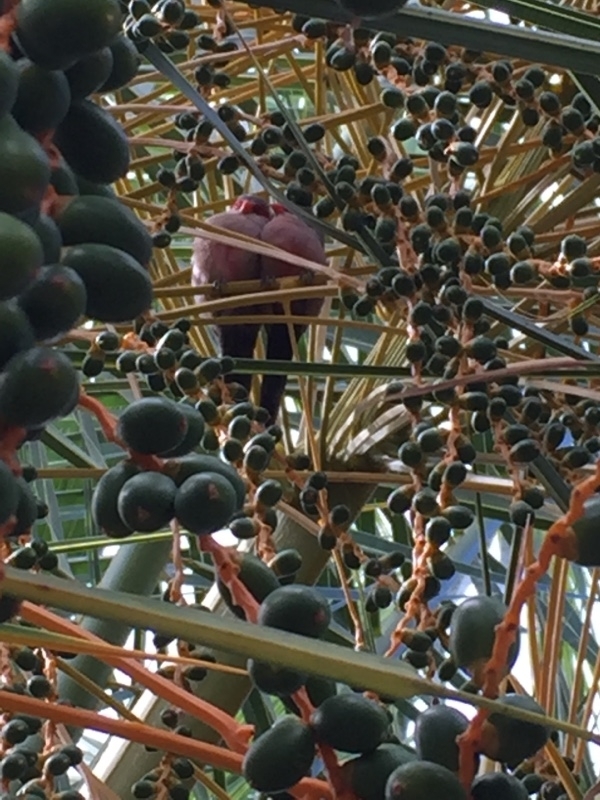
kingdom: Animalia
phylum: Chordata
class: Aves
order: Passeriformes
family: Estrildidae
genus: Estrilda
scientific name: Estrilda astrild
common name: Common waxbill
